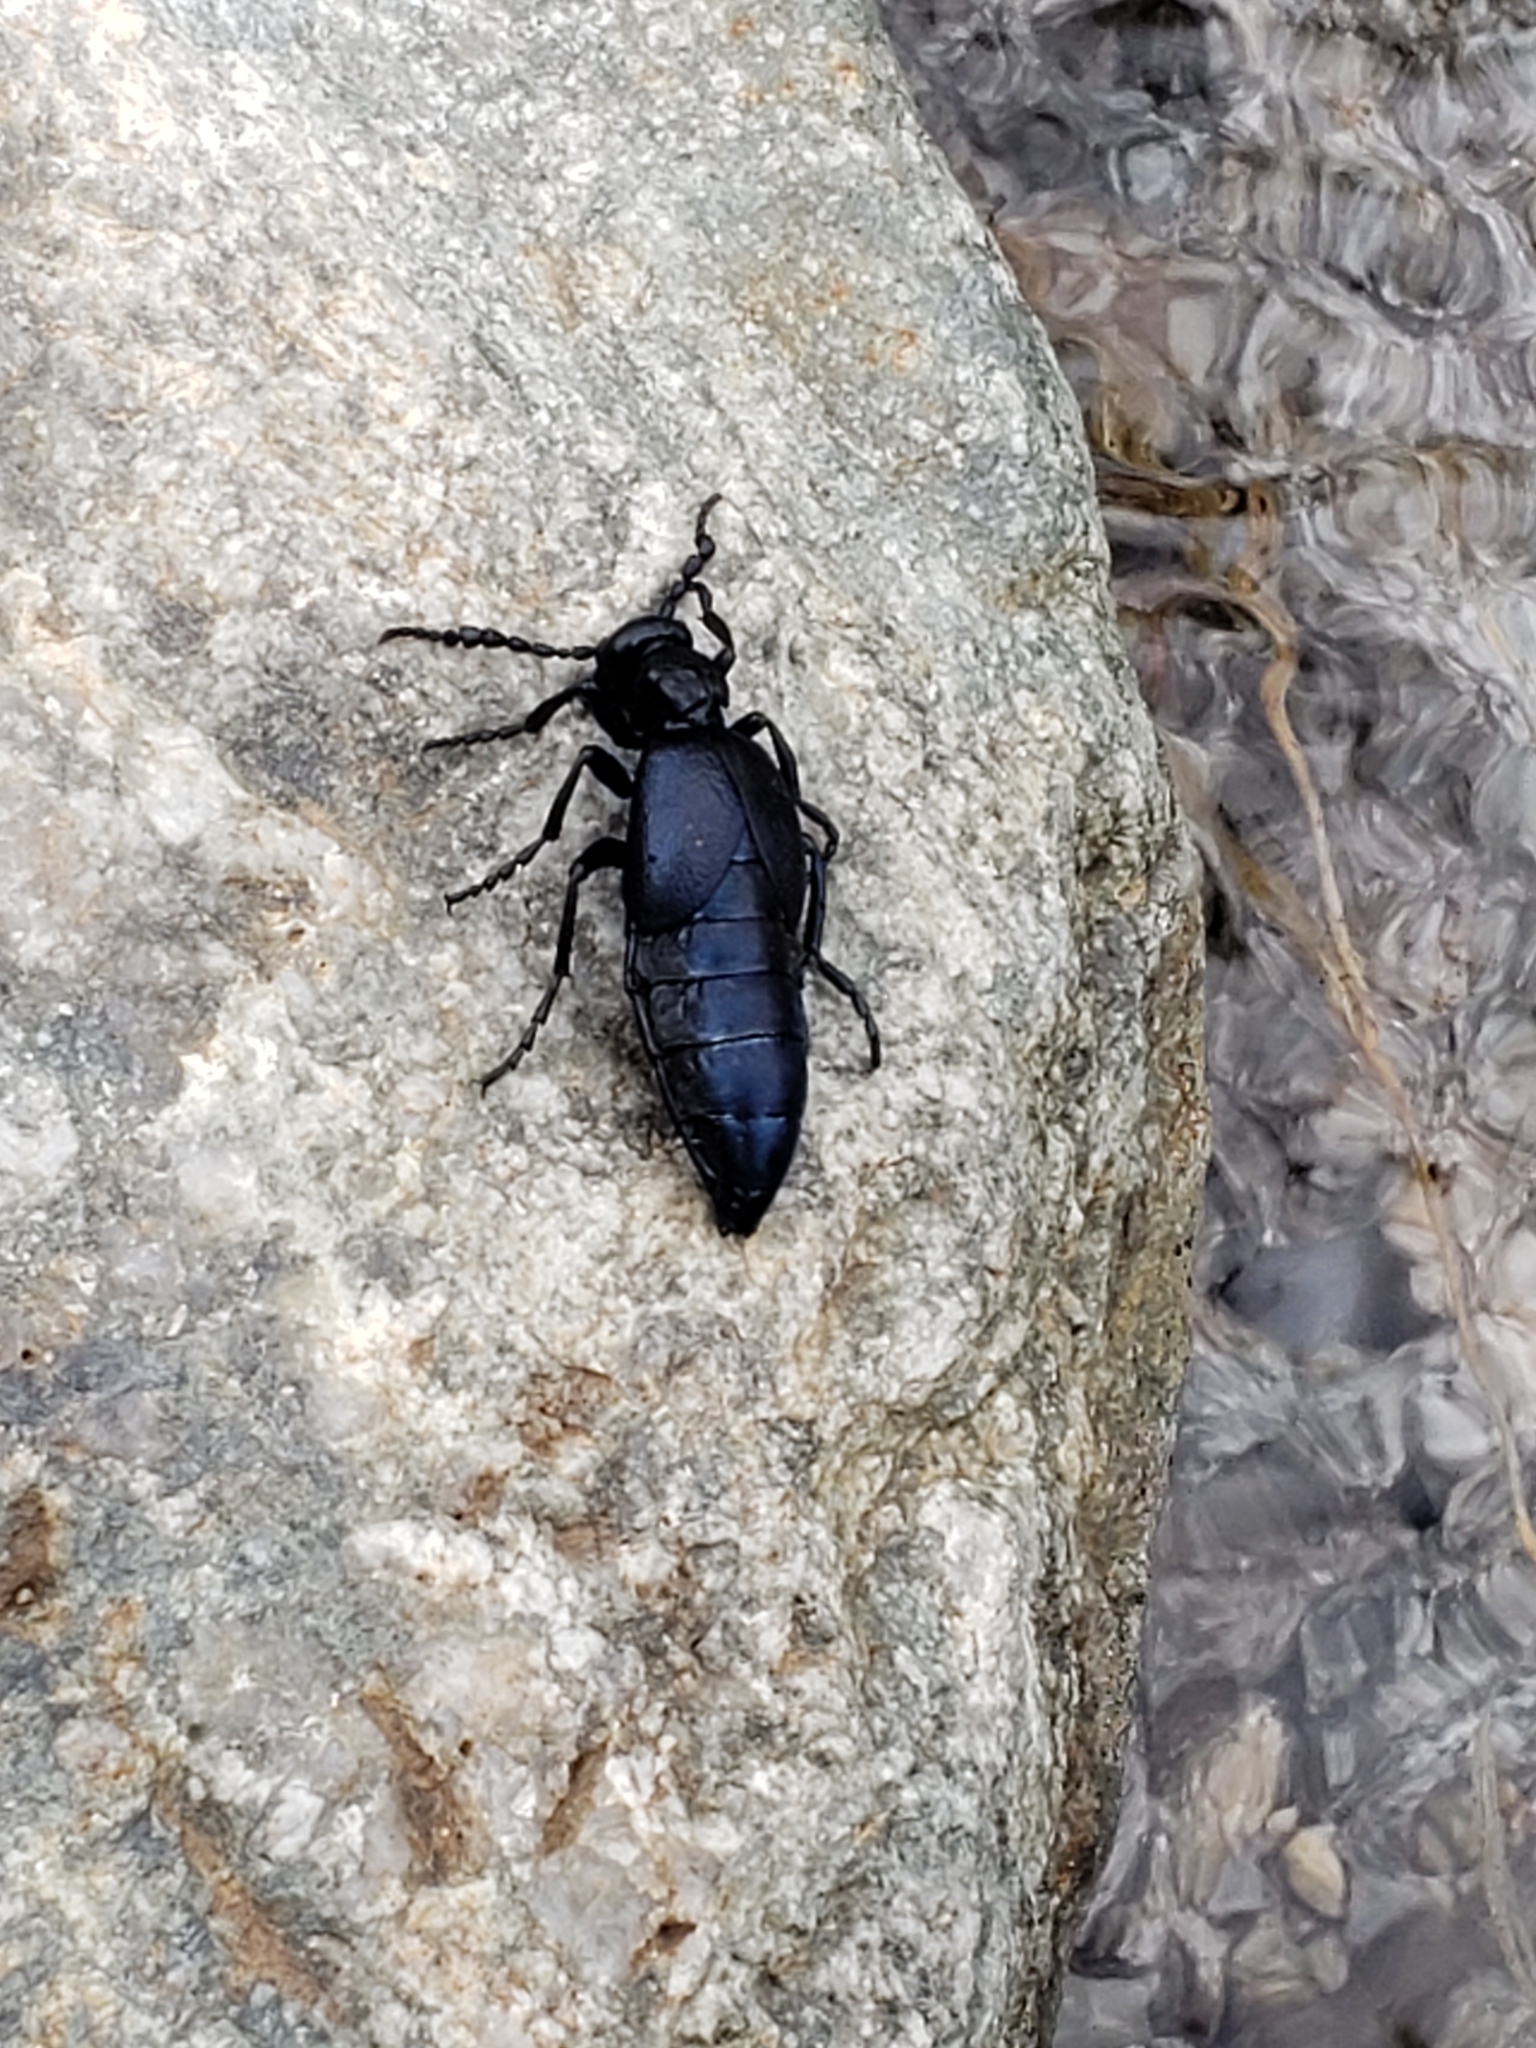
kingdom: Animalia
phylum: Arthropoda
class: Insecta
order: Coleoptera
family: Meloidae
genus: Meloe
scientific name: Meloe violaceus
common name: Violet oil-beetle
